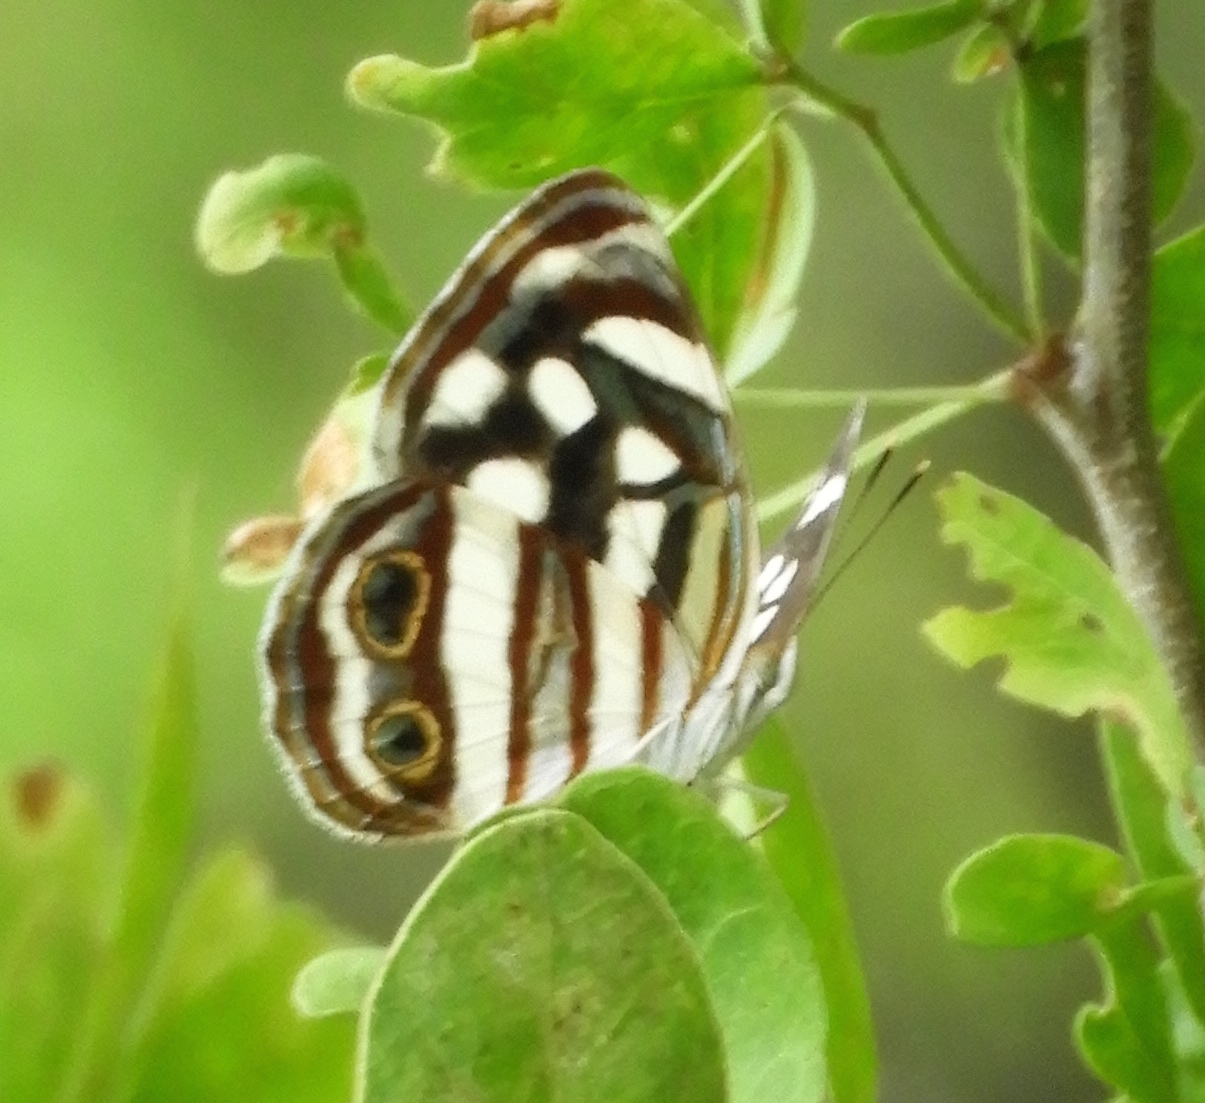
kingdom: Animalia
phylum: Arthropoda
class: Insecta
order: Lepidoptera
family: Nymphalidae
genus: Dynamine
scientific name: Dynamine mylitta
